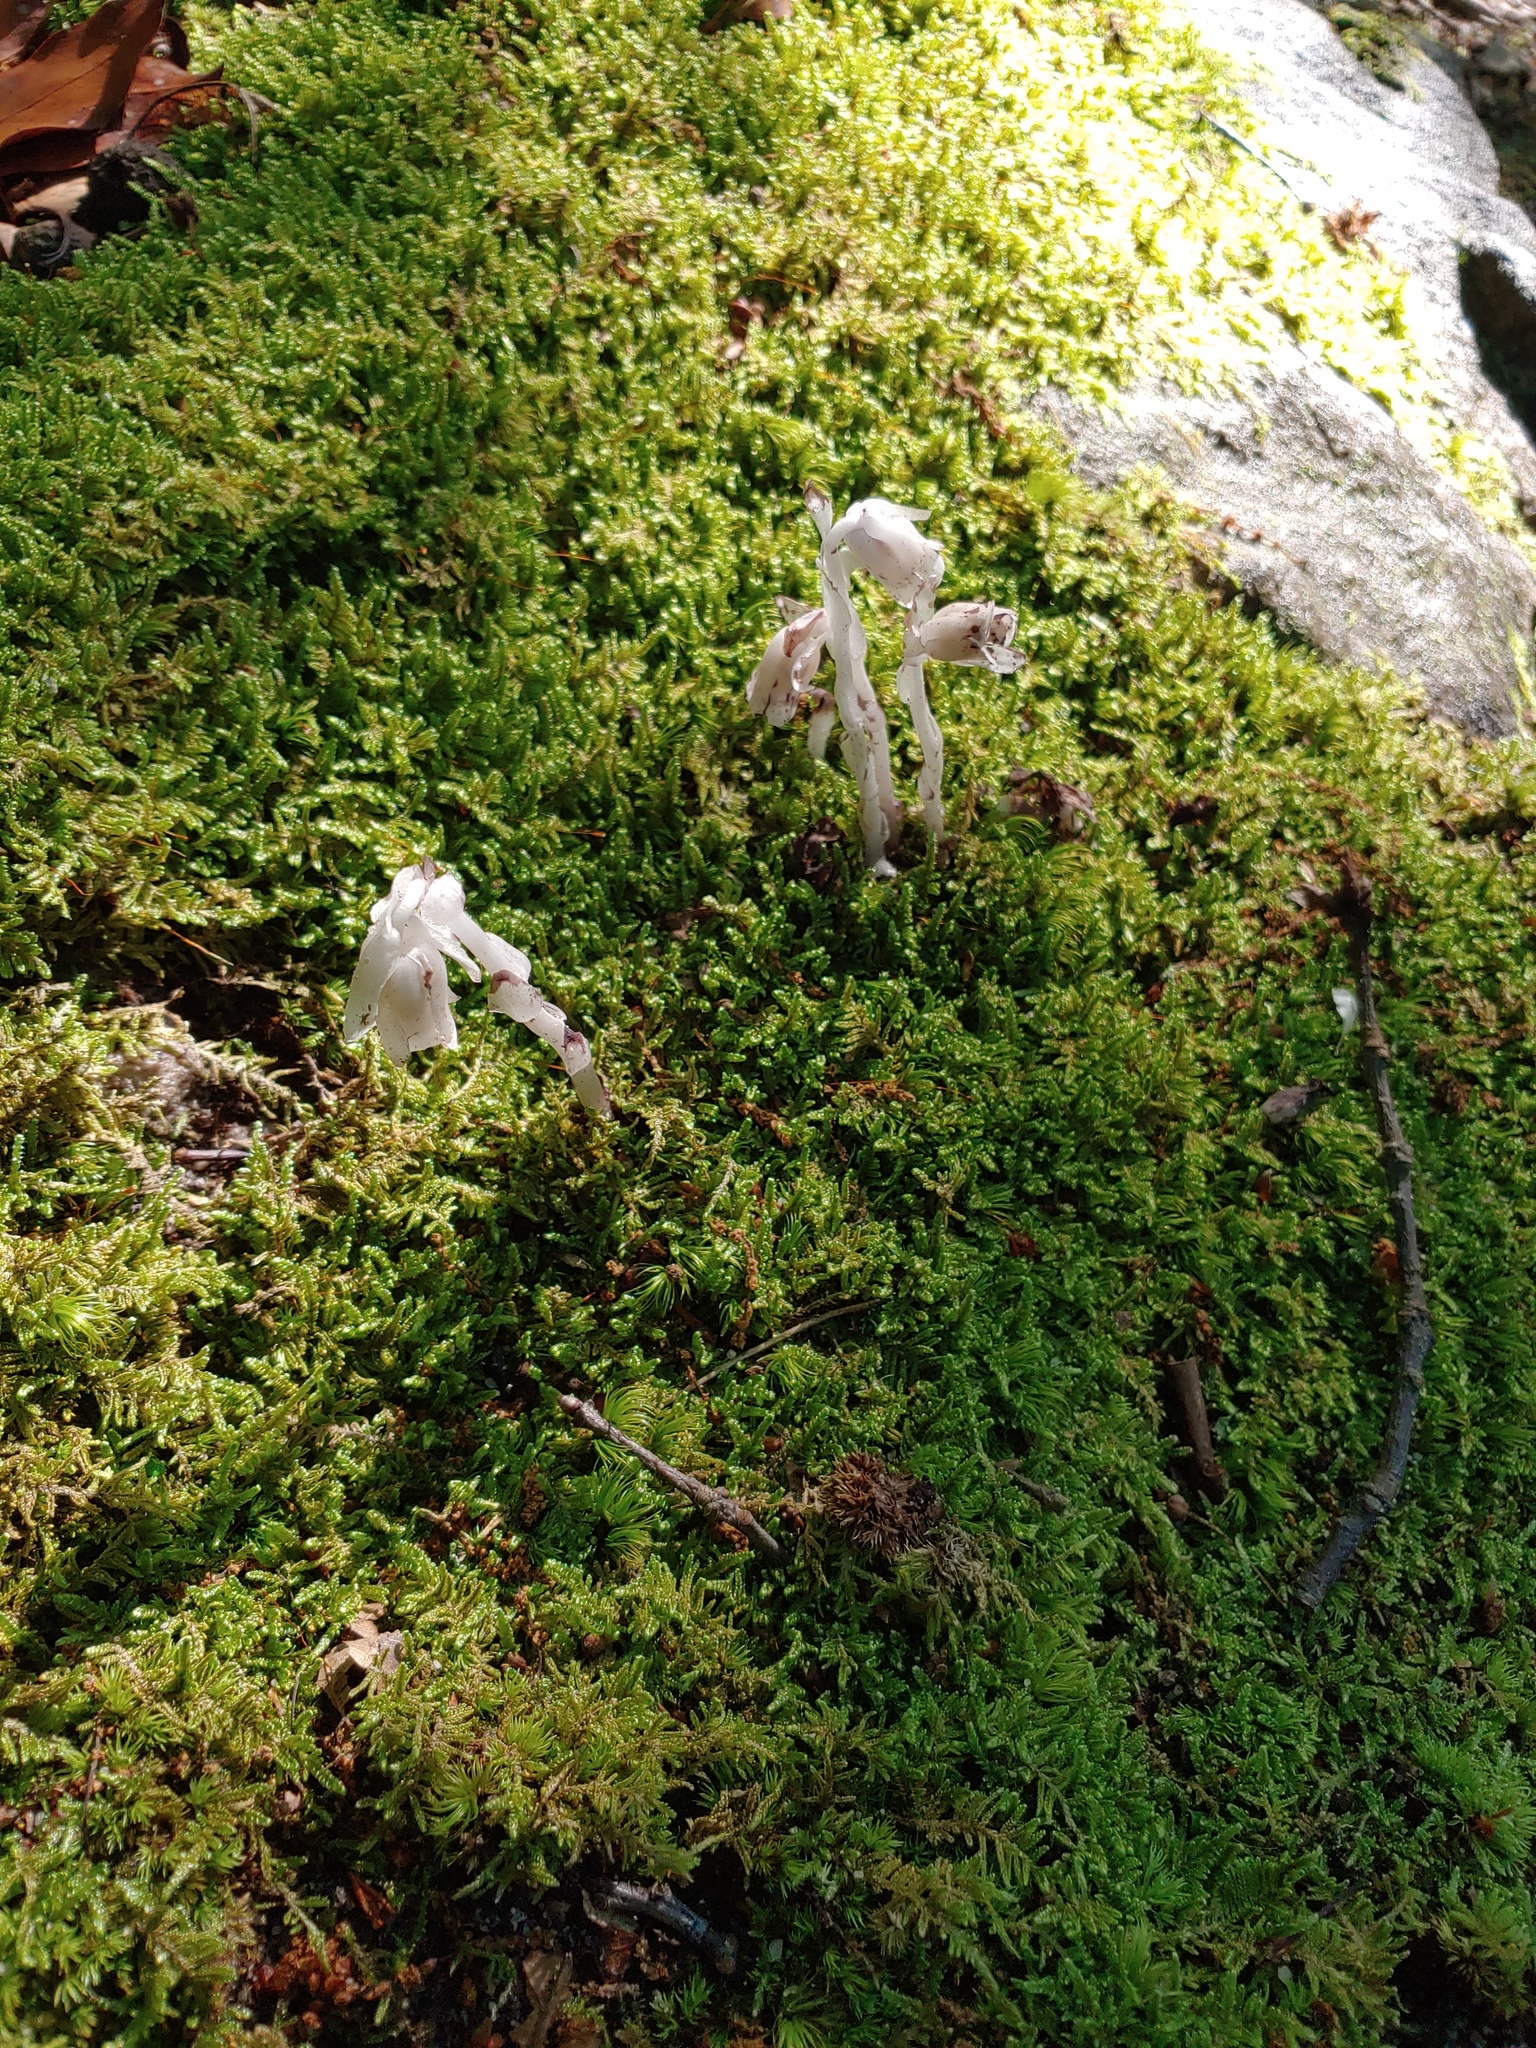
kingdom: Plantae
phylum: Tracheophyta
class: Magnoliopsida
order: Ericales
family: Ericaceae
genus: Monotropa
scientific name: Monotropa uniflora
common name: Convulsion root
